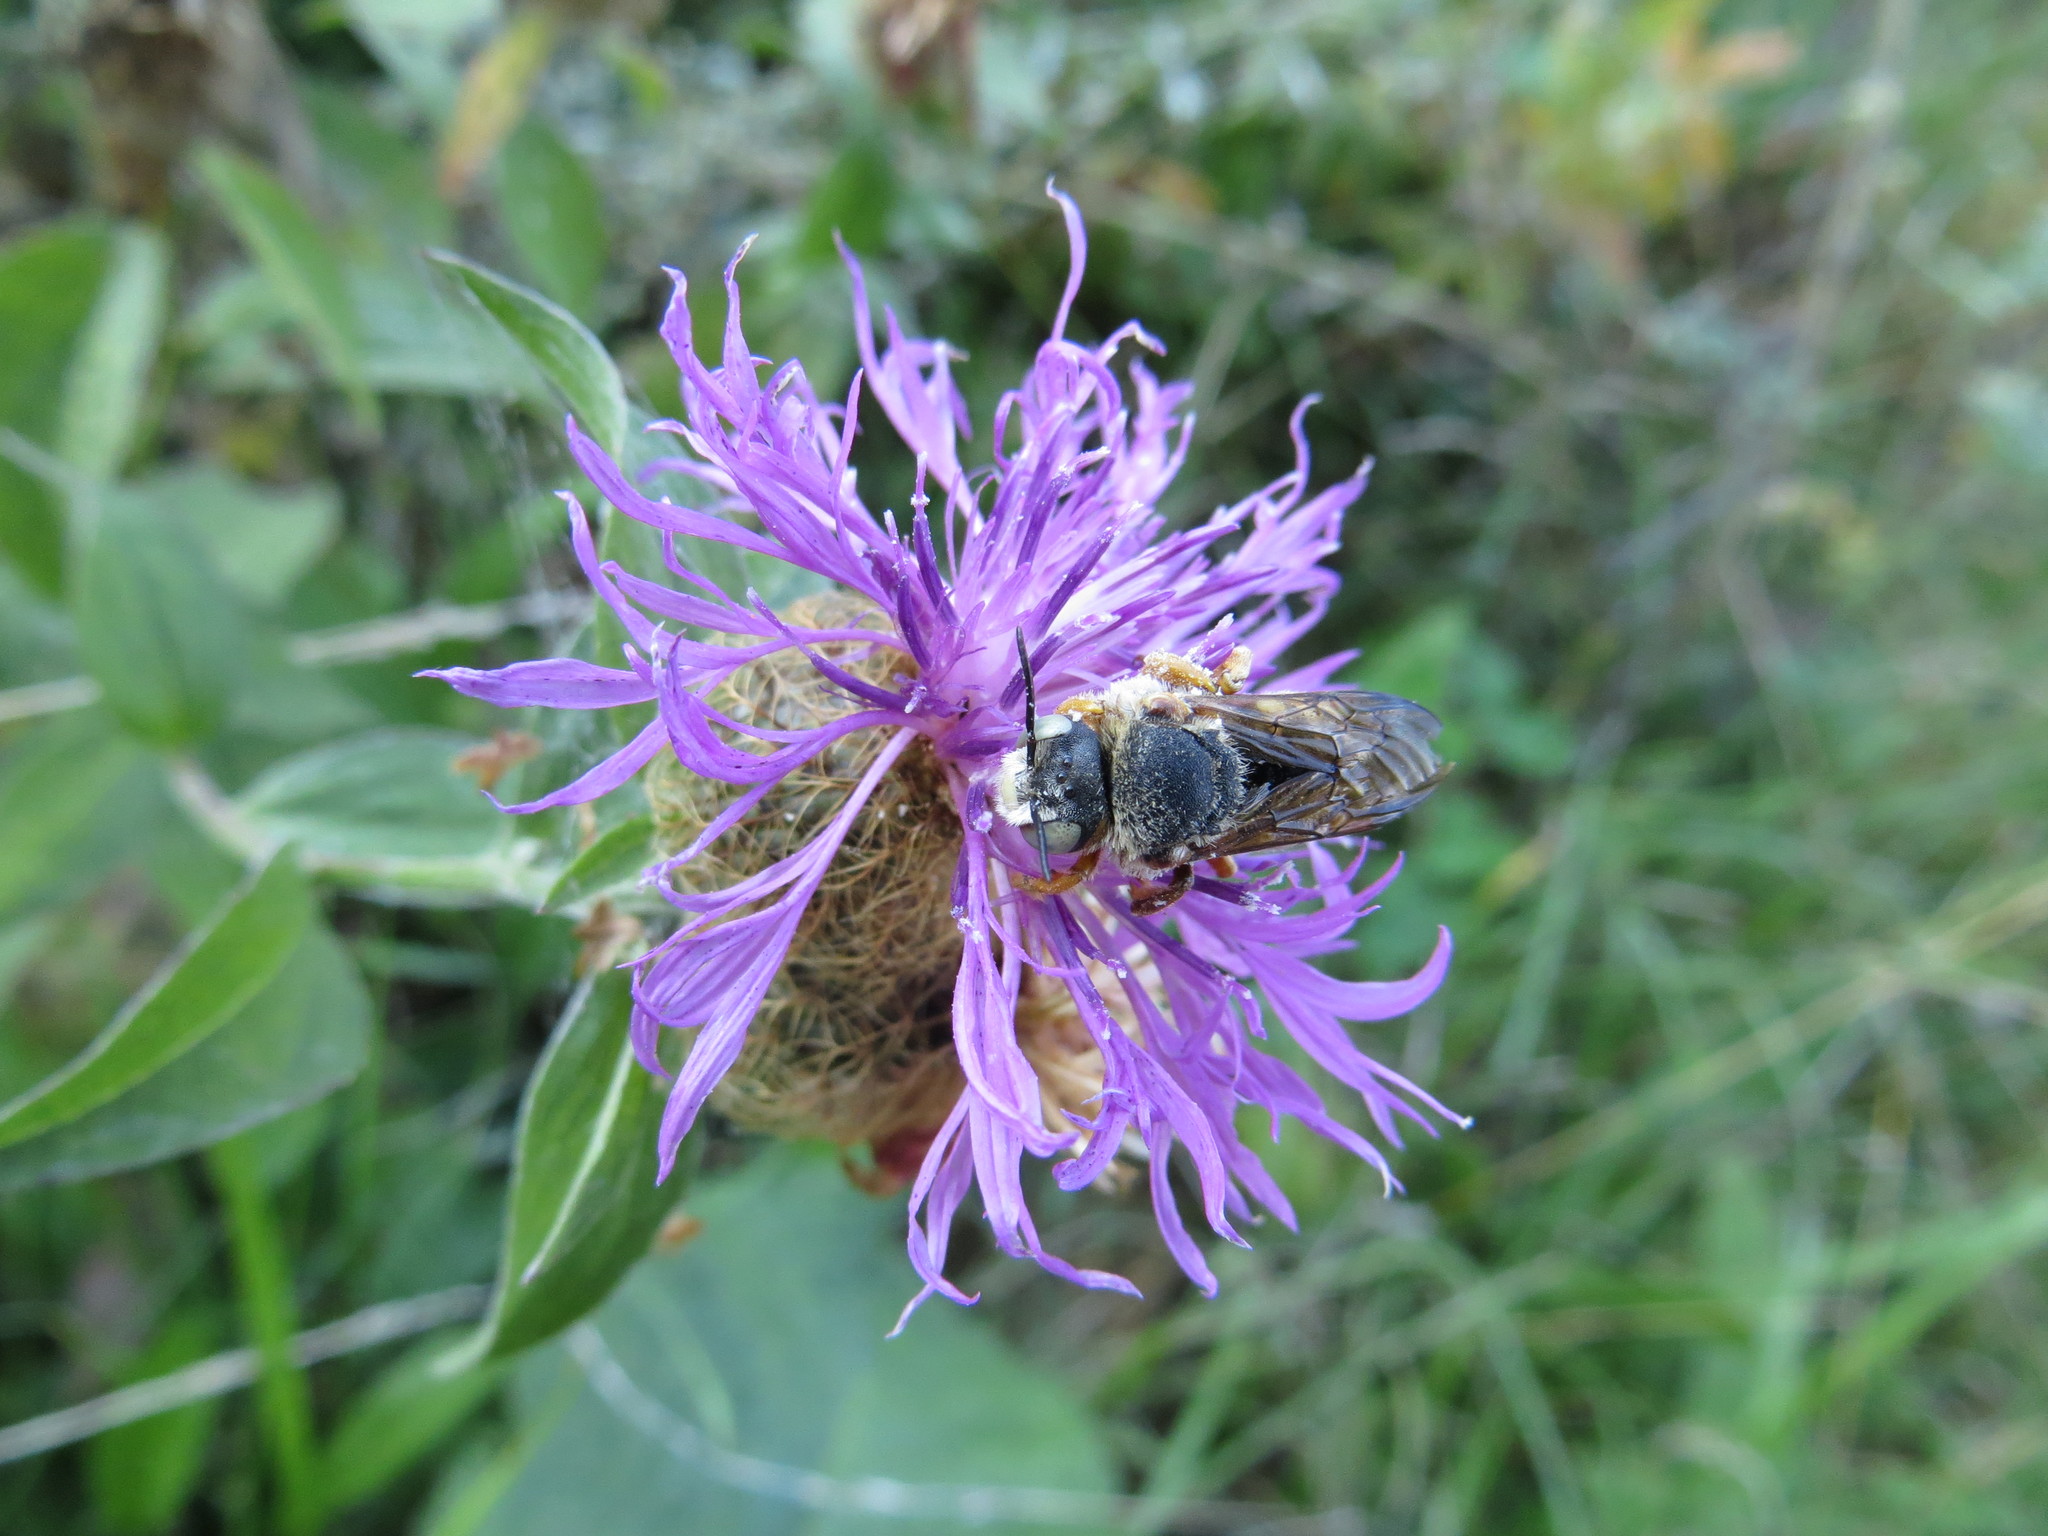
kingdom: Animalia
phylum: Arthropoda
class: Insecta
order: Hymenoptera
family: Megachilidae
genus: Icteranthidium
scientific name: Icteranthidium laterale
